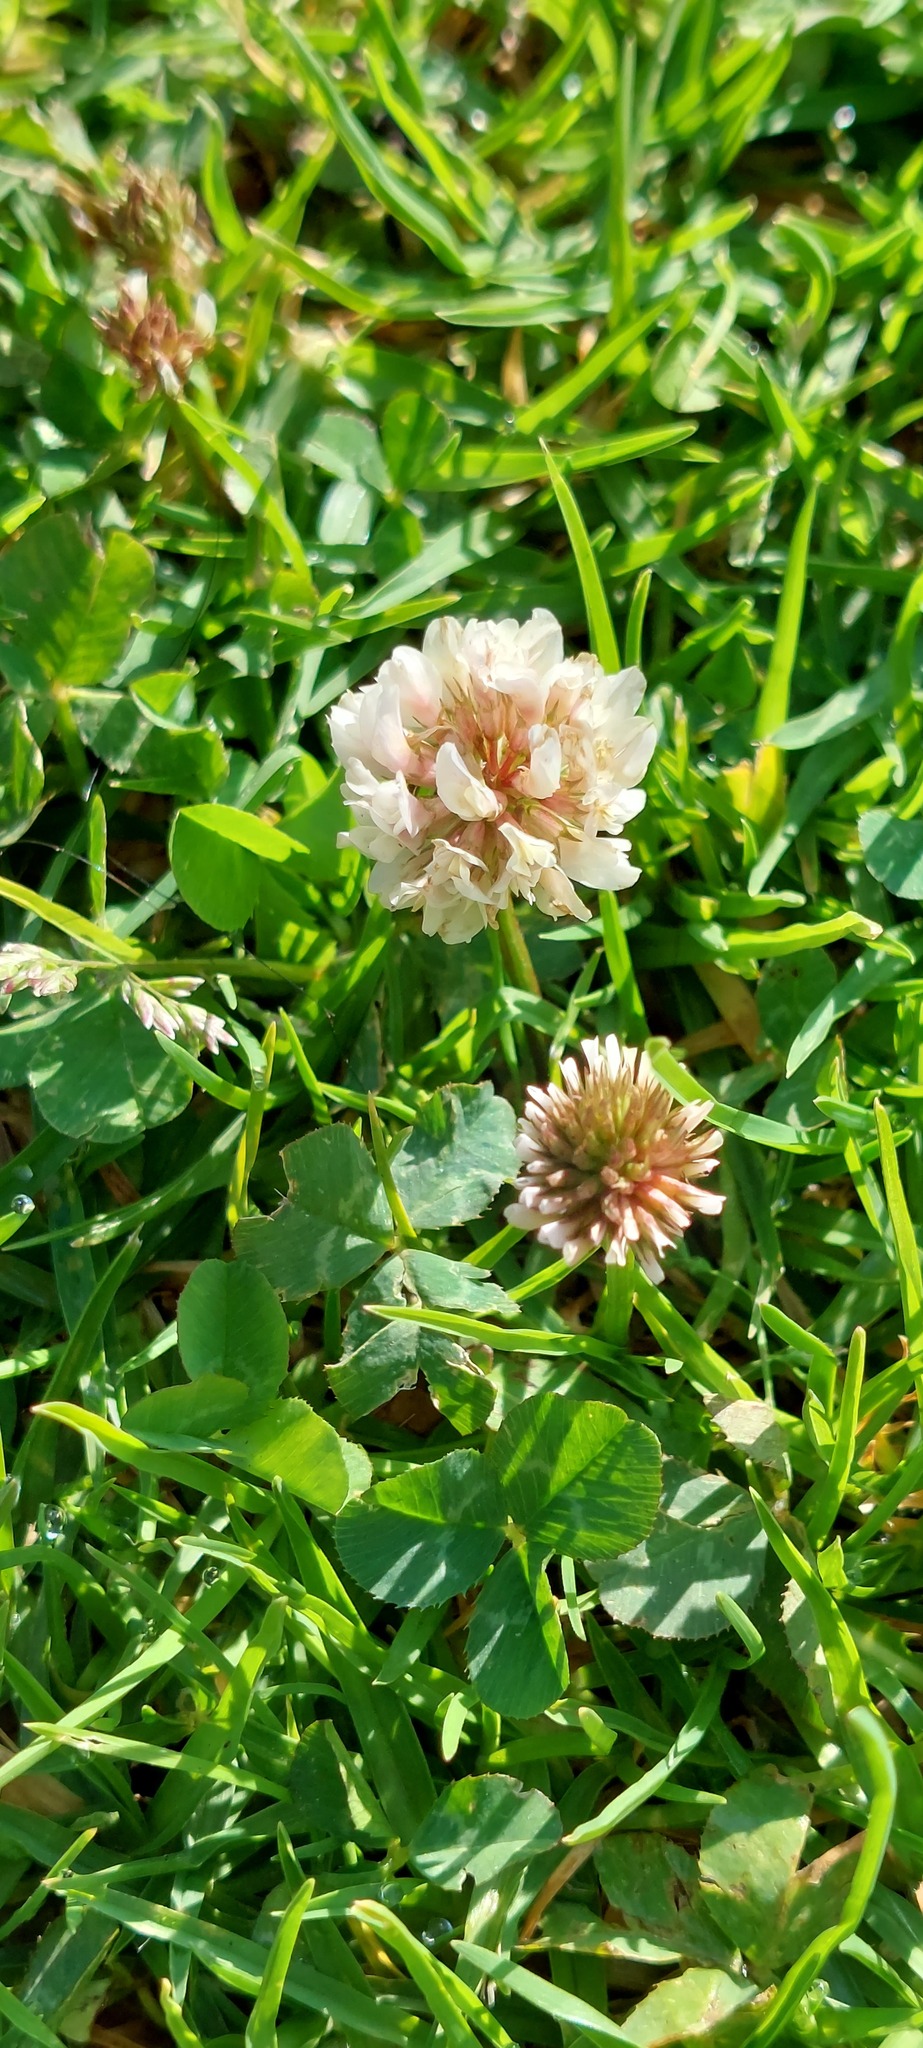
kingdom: Plantae
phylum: Tracheophyta
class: Magnoliopsida
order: Fabales
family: Fabaceae
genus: Trifolium
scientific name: Trifolium repens
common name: White clover
